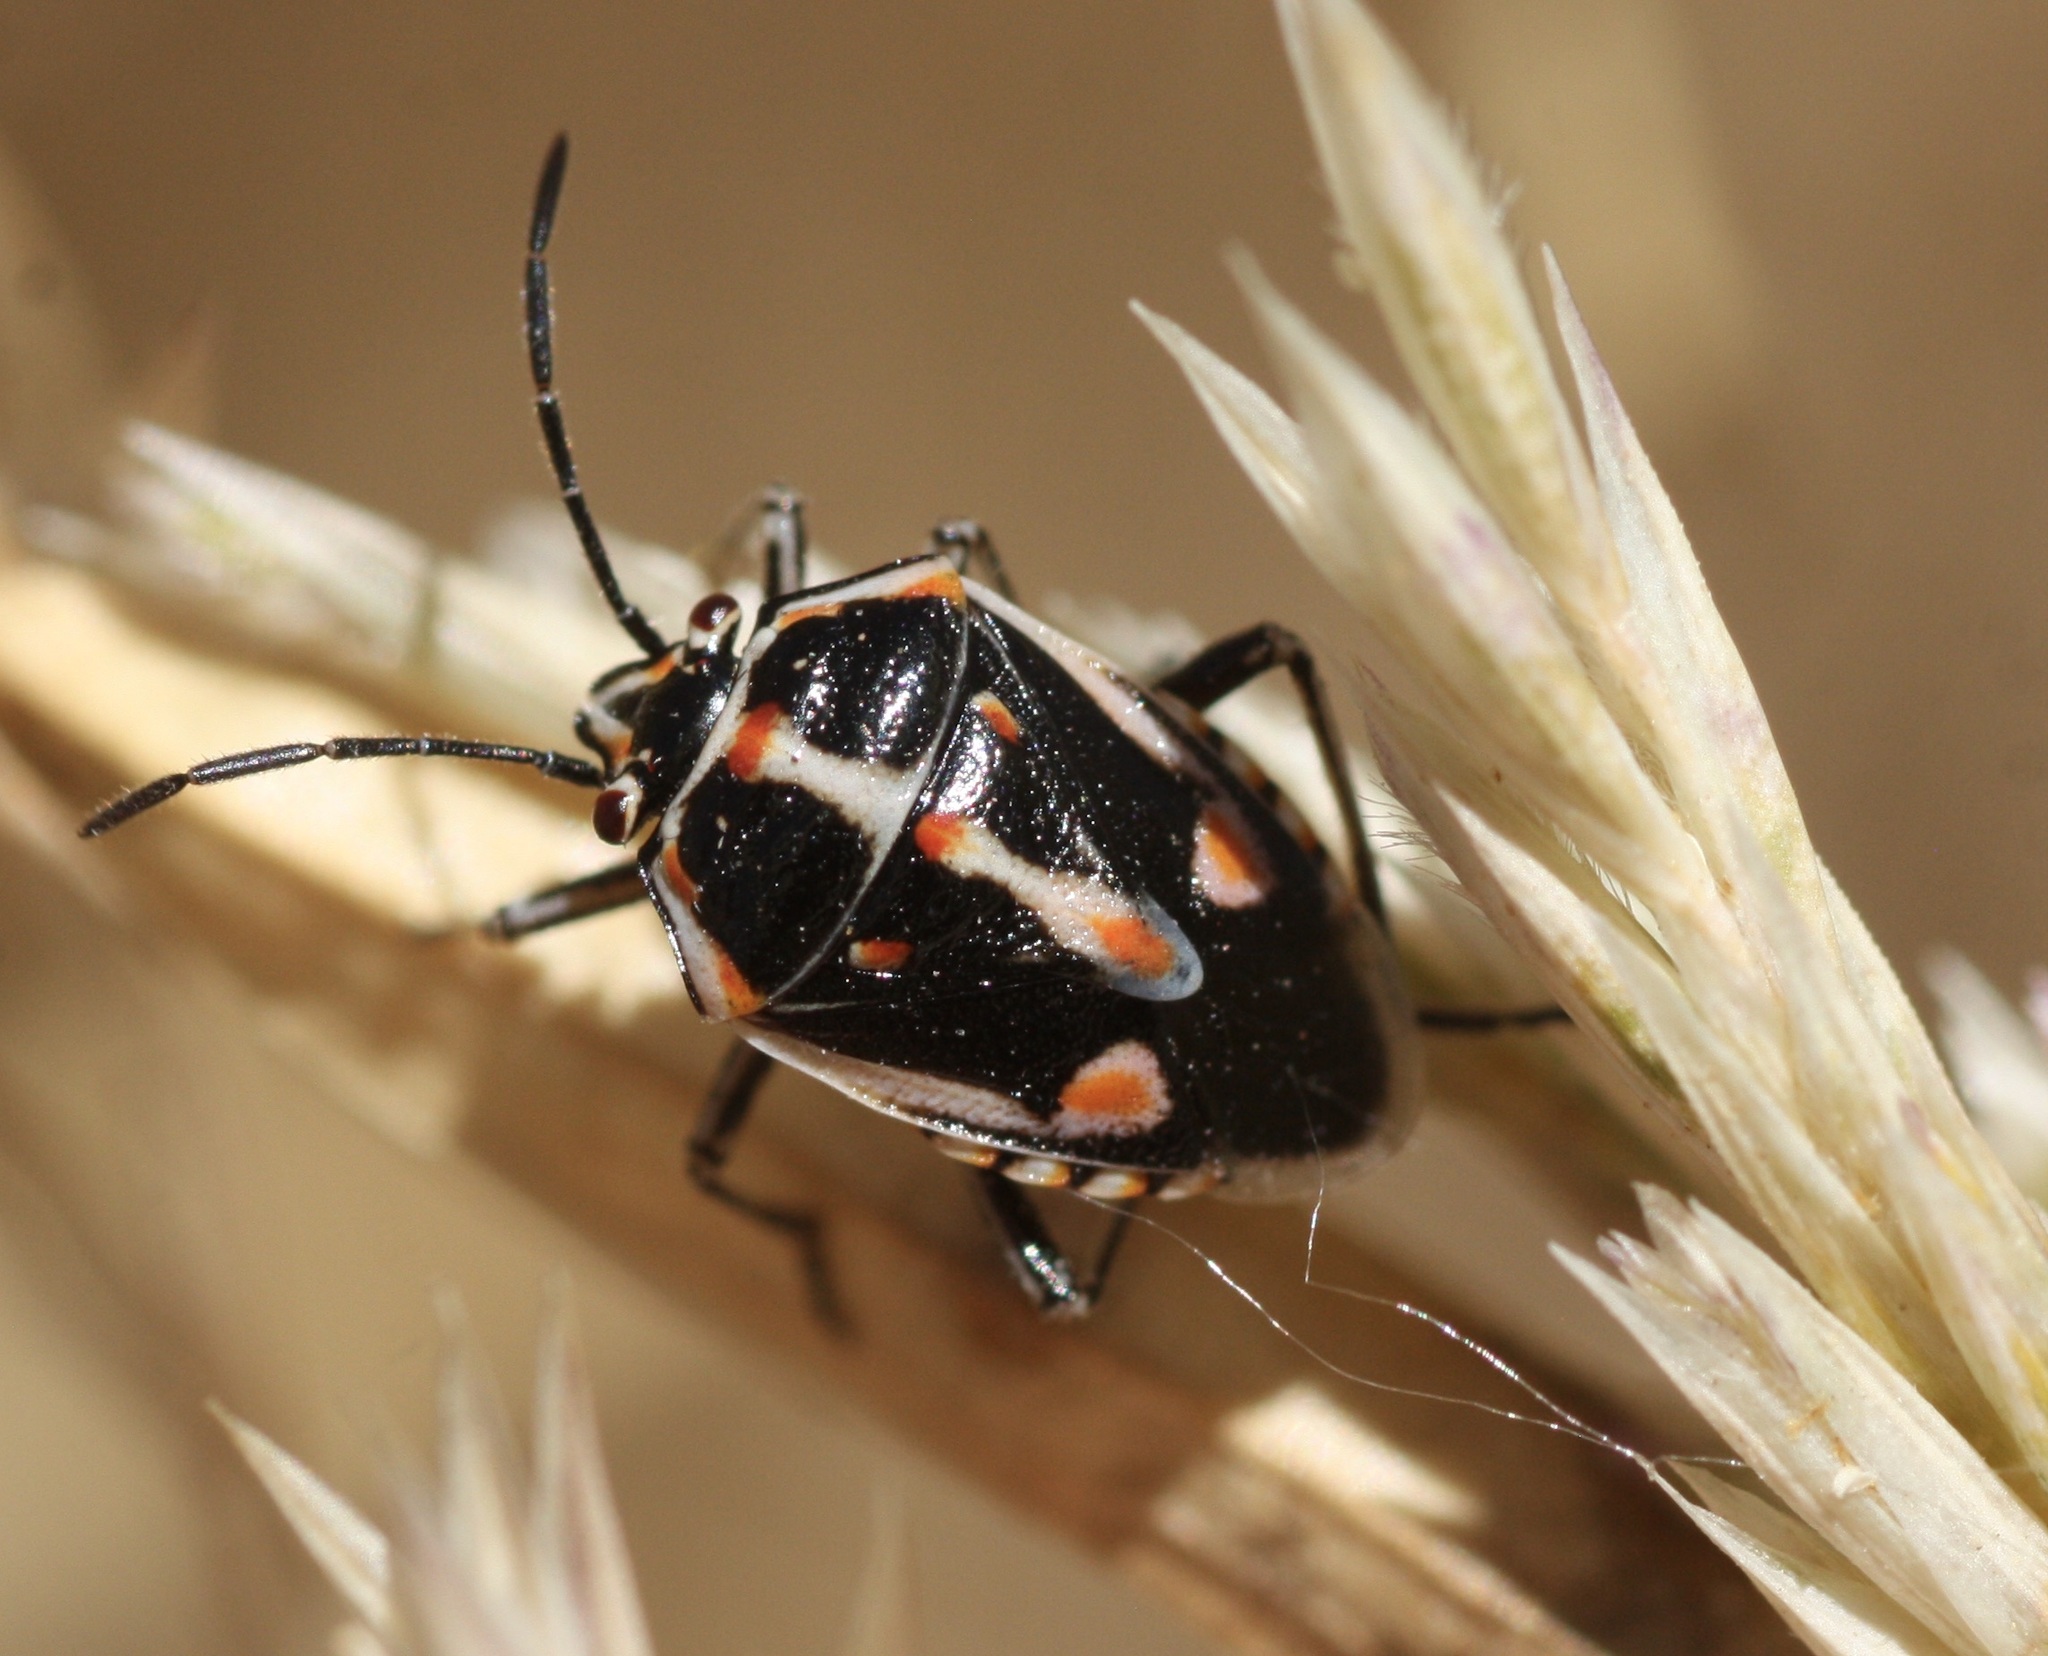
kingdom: Animalia
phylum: Arthropoda
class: Insecta
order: Hemiptera
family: Pentatomidae
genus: Bagrada
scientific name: Bagrada hilaris
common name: Bagrada bug
